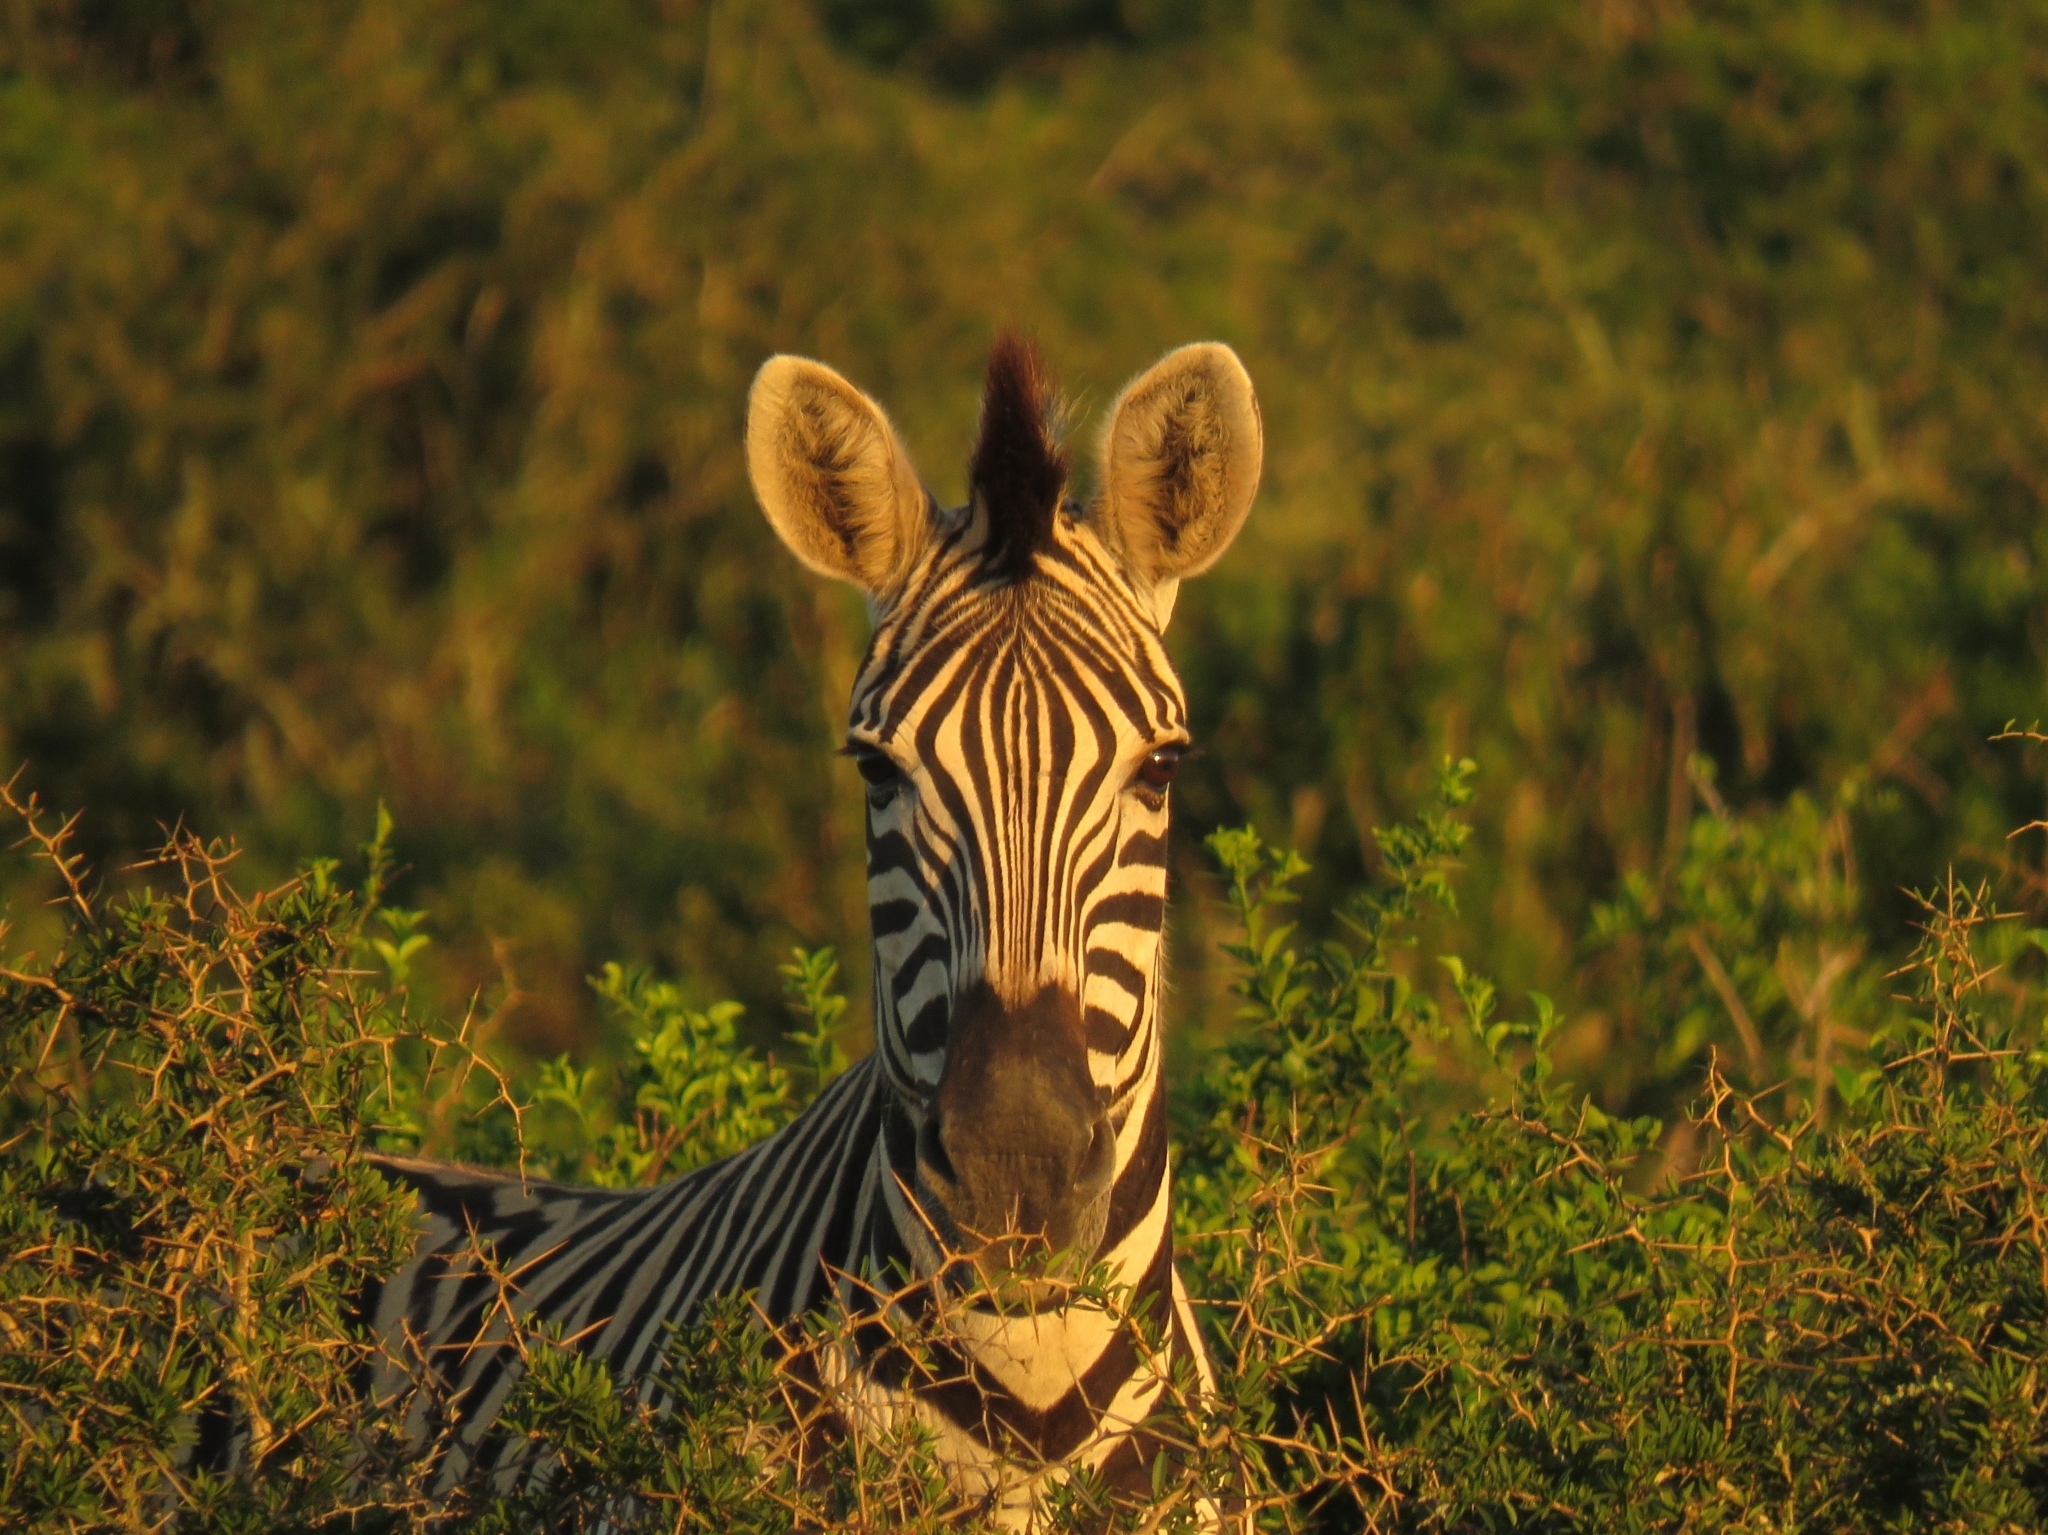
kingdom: Animalia
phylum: Chordata
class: Mammalia
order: Perissodactyla
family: Equidae
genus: Equus
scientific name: Equus quagga
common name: Plains zebra
